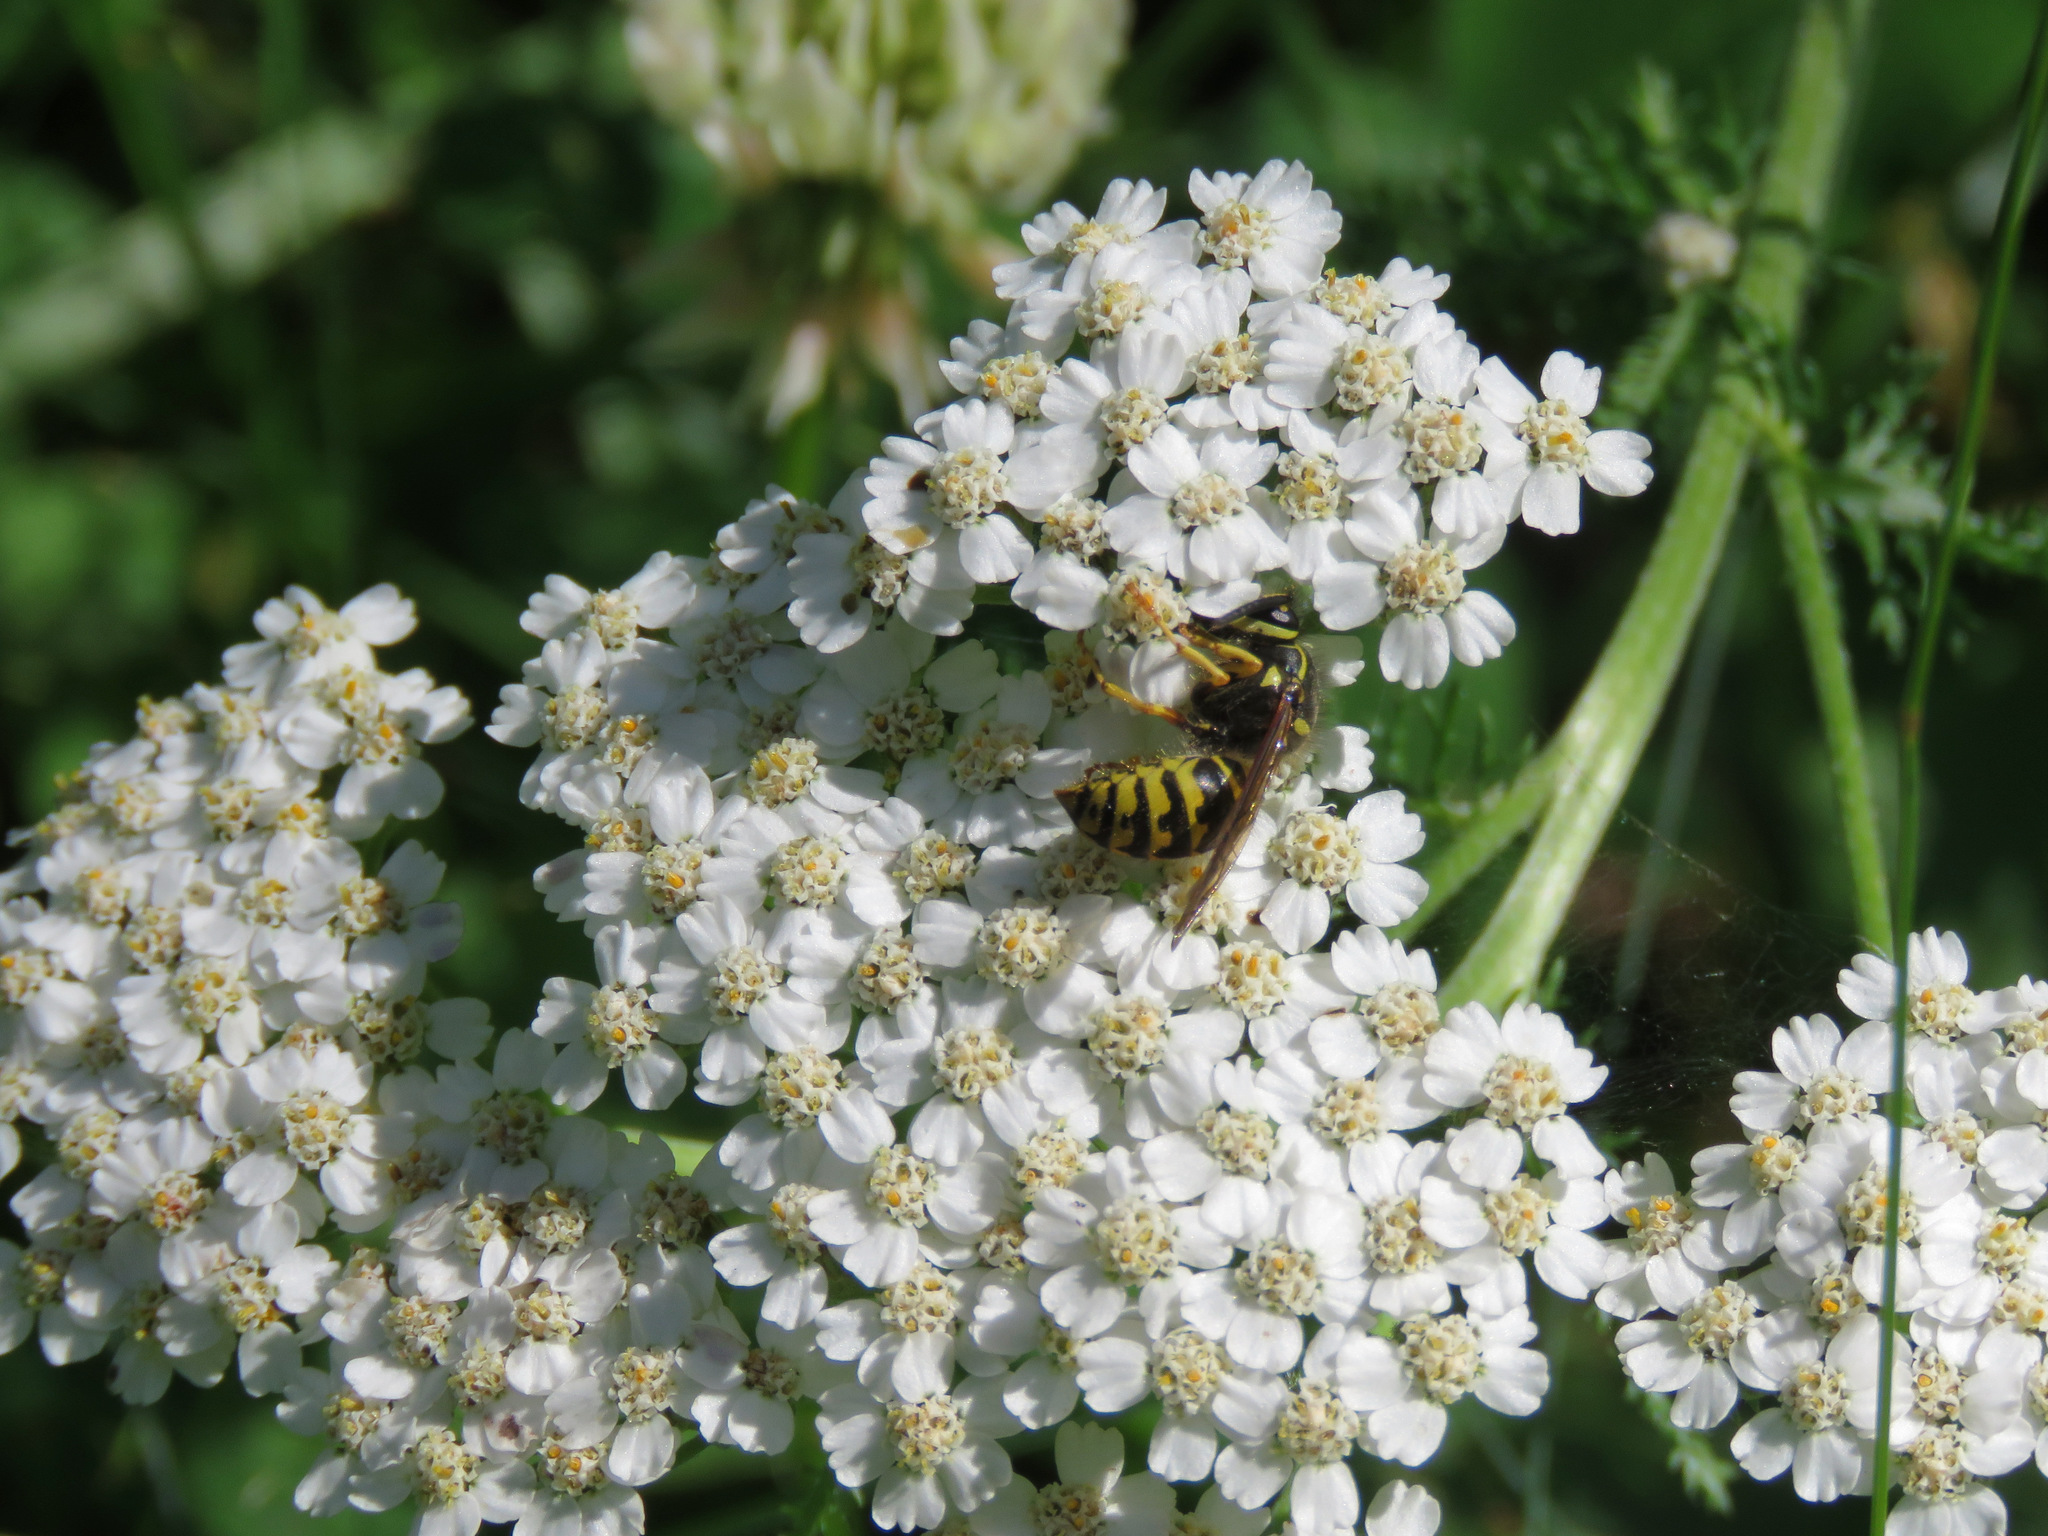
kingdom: Animalia
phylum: Arthropoda
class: Insecta
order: Hymenoptera
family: Vespidae
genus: Dolichovespula
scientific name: Dolichovespula arenaria
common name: Aerial yellowjacket
